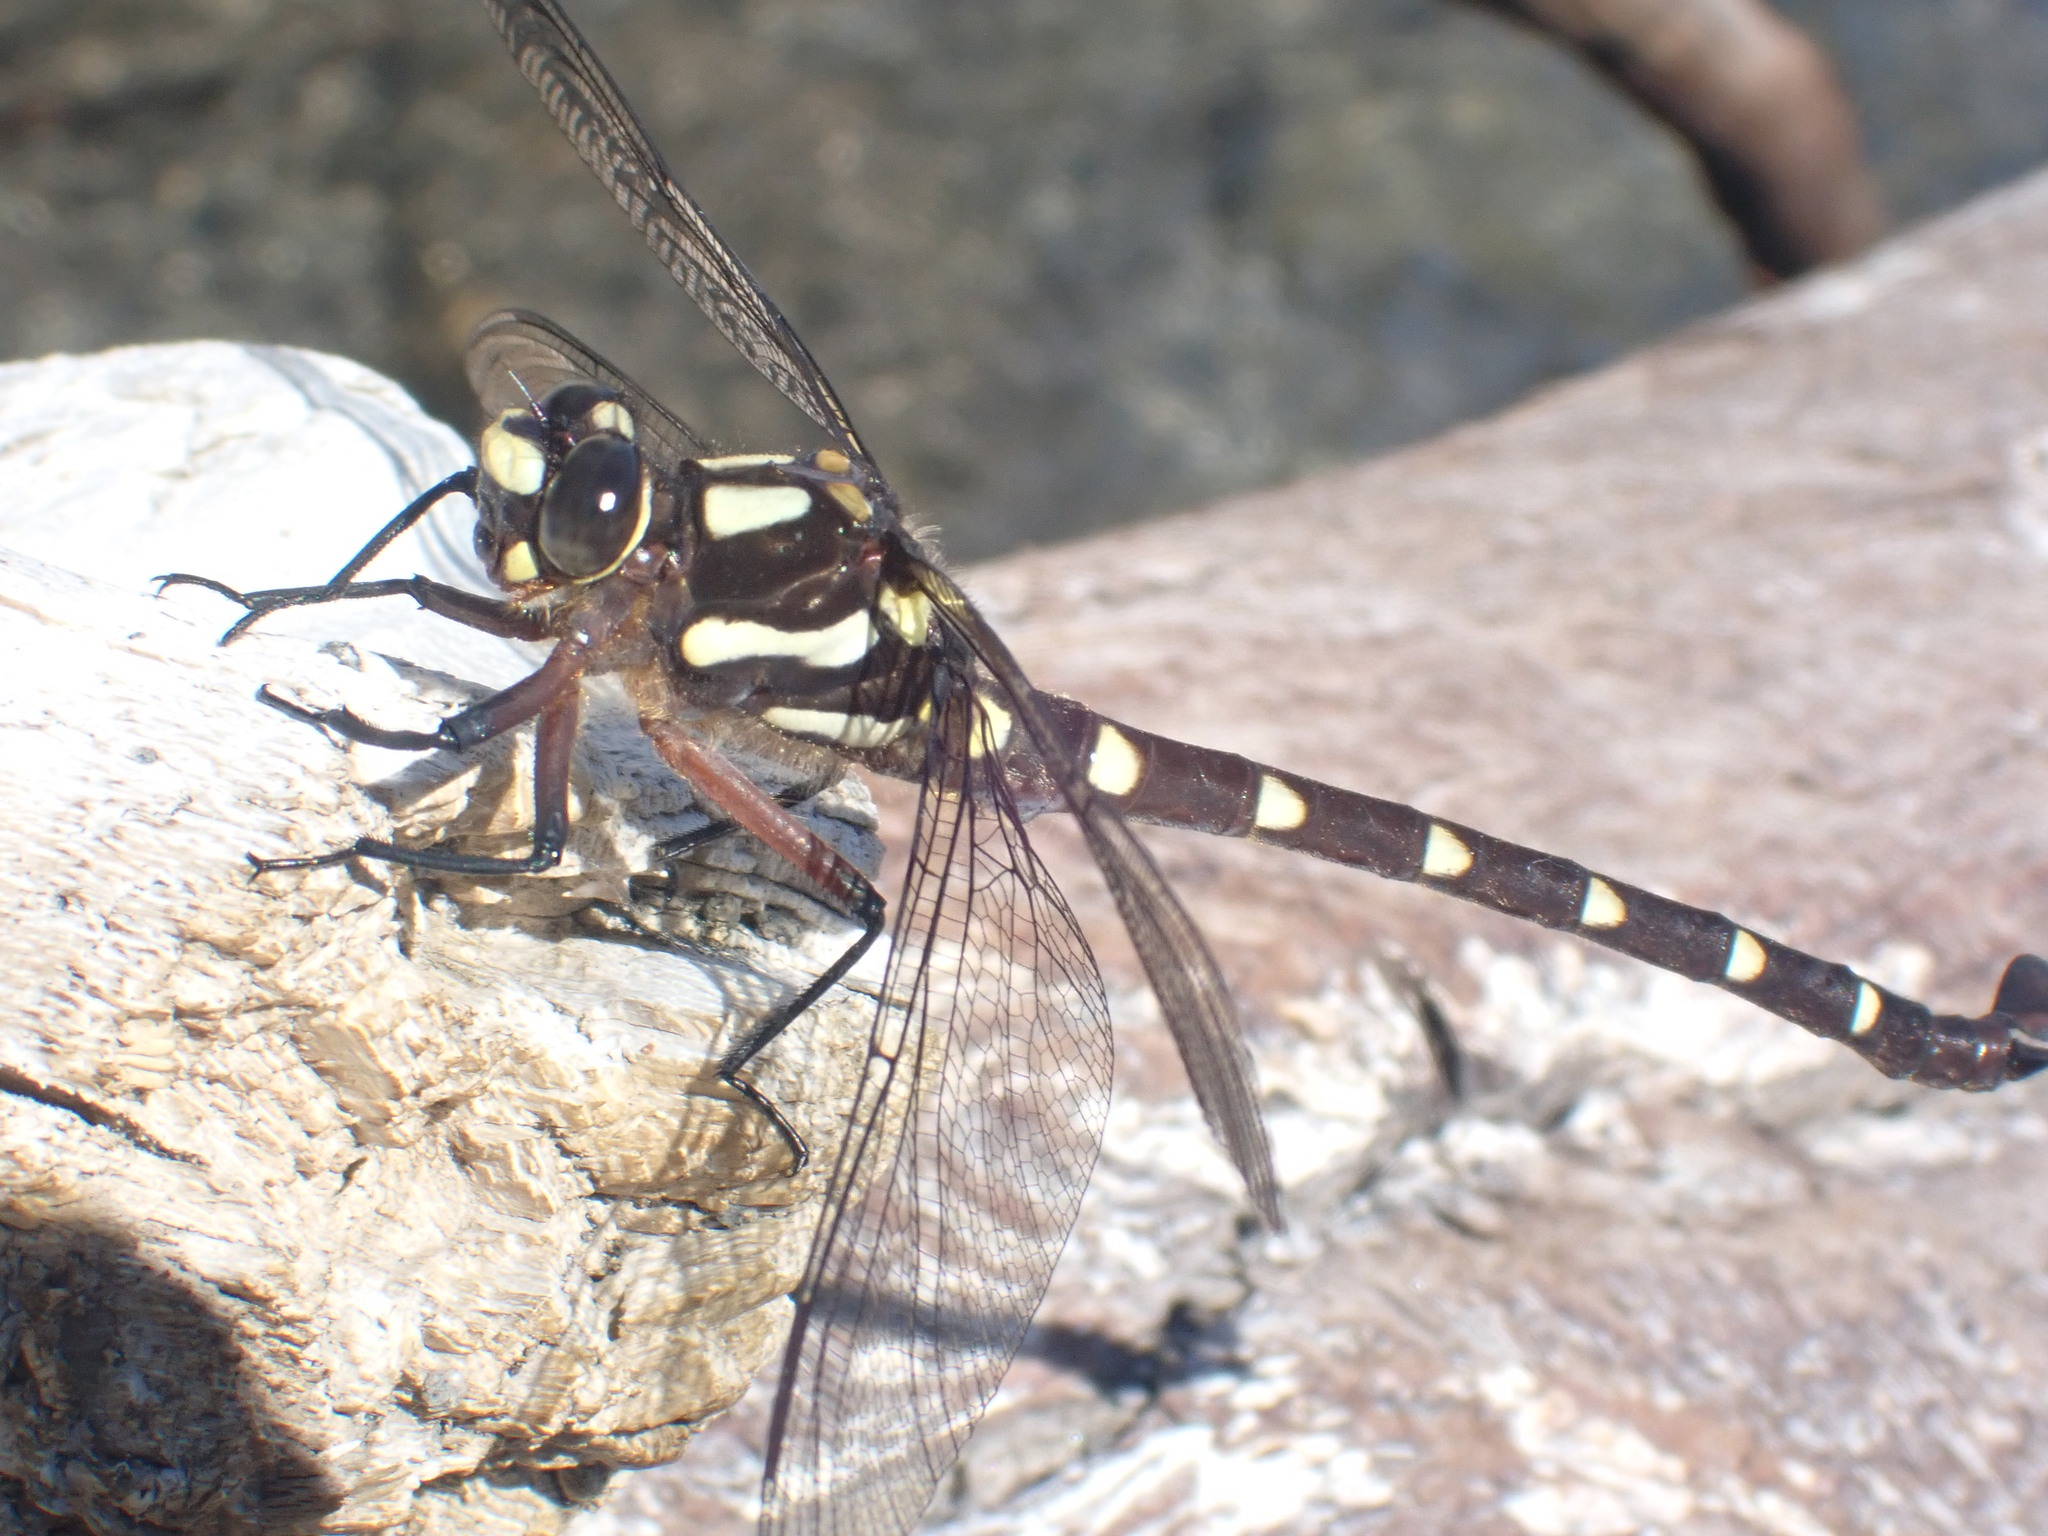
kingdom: Animalia
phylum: Arthropoda
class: Insecta
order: Odonata
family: Petaluridae
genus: Uropetala
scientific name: Uropetala carovei
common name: Bush giant dragonfly
